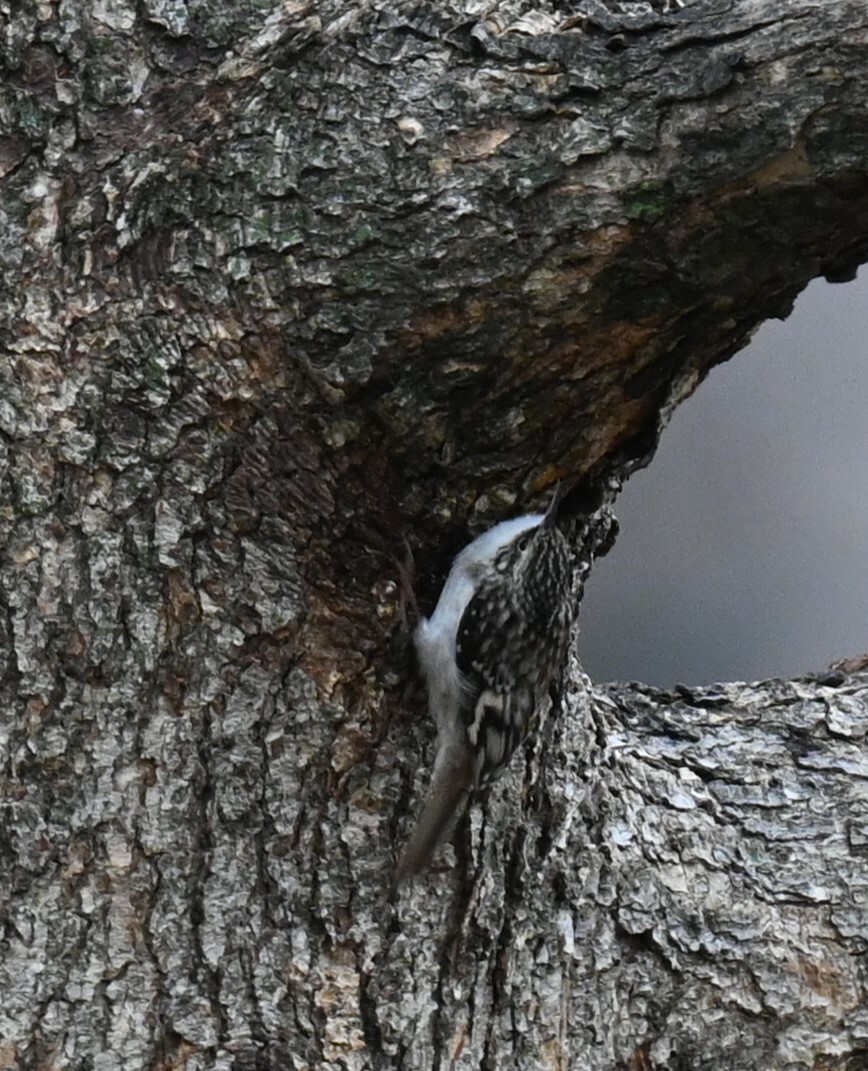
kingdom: Animalia
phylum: Chordata
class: Aves
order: Passeriformes
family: Certhiidae
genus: Certhia
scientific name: Certhia americana
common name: Brown creeper
